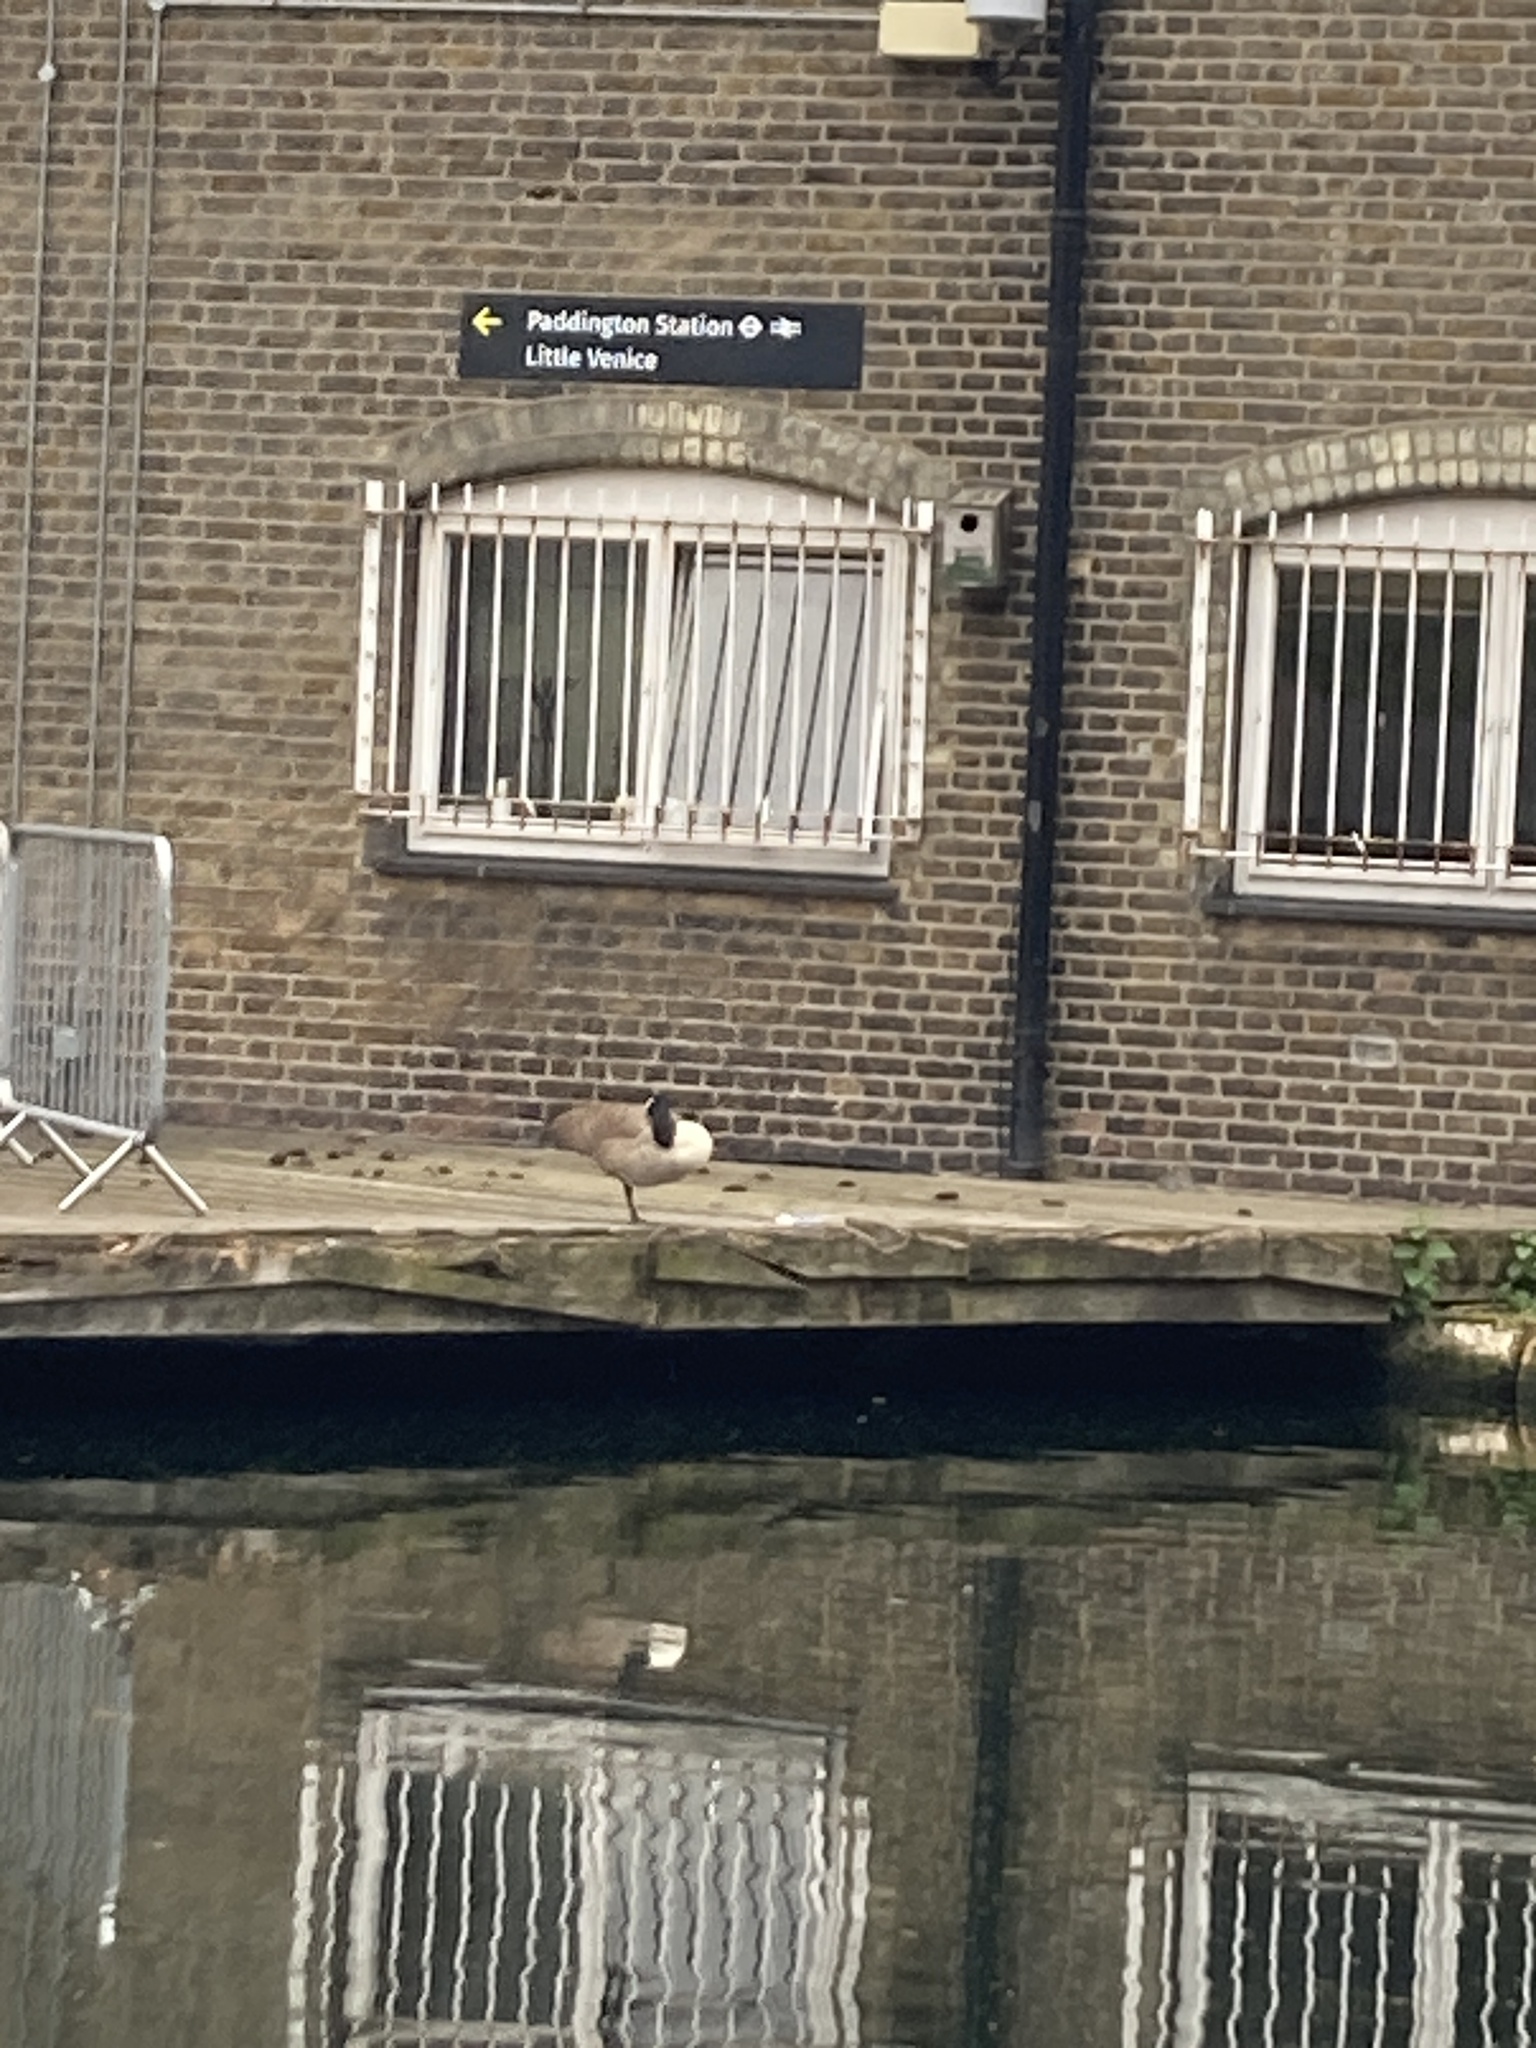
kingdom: Animalia
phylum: Chordata
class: Aves
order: Anseriformes
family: Anatidae
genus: Branta
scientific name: Branta canadensis
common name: Canada goose
